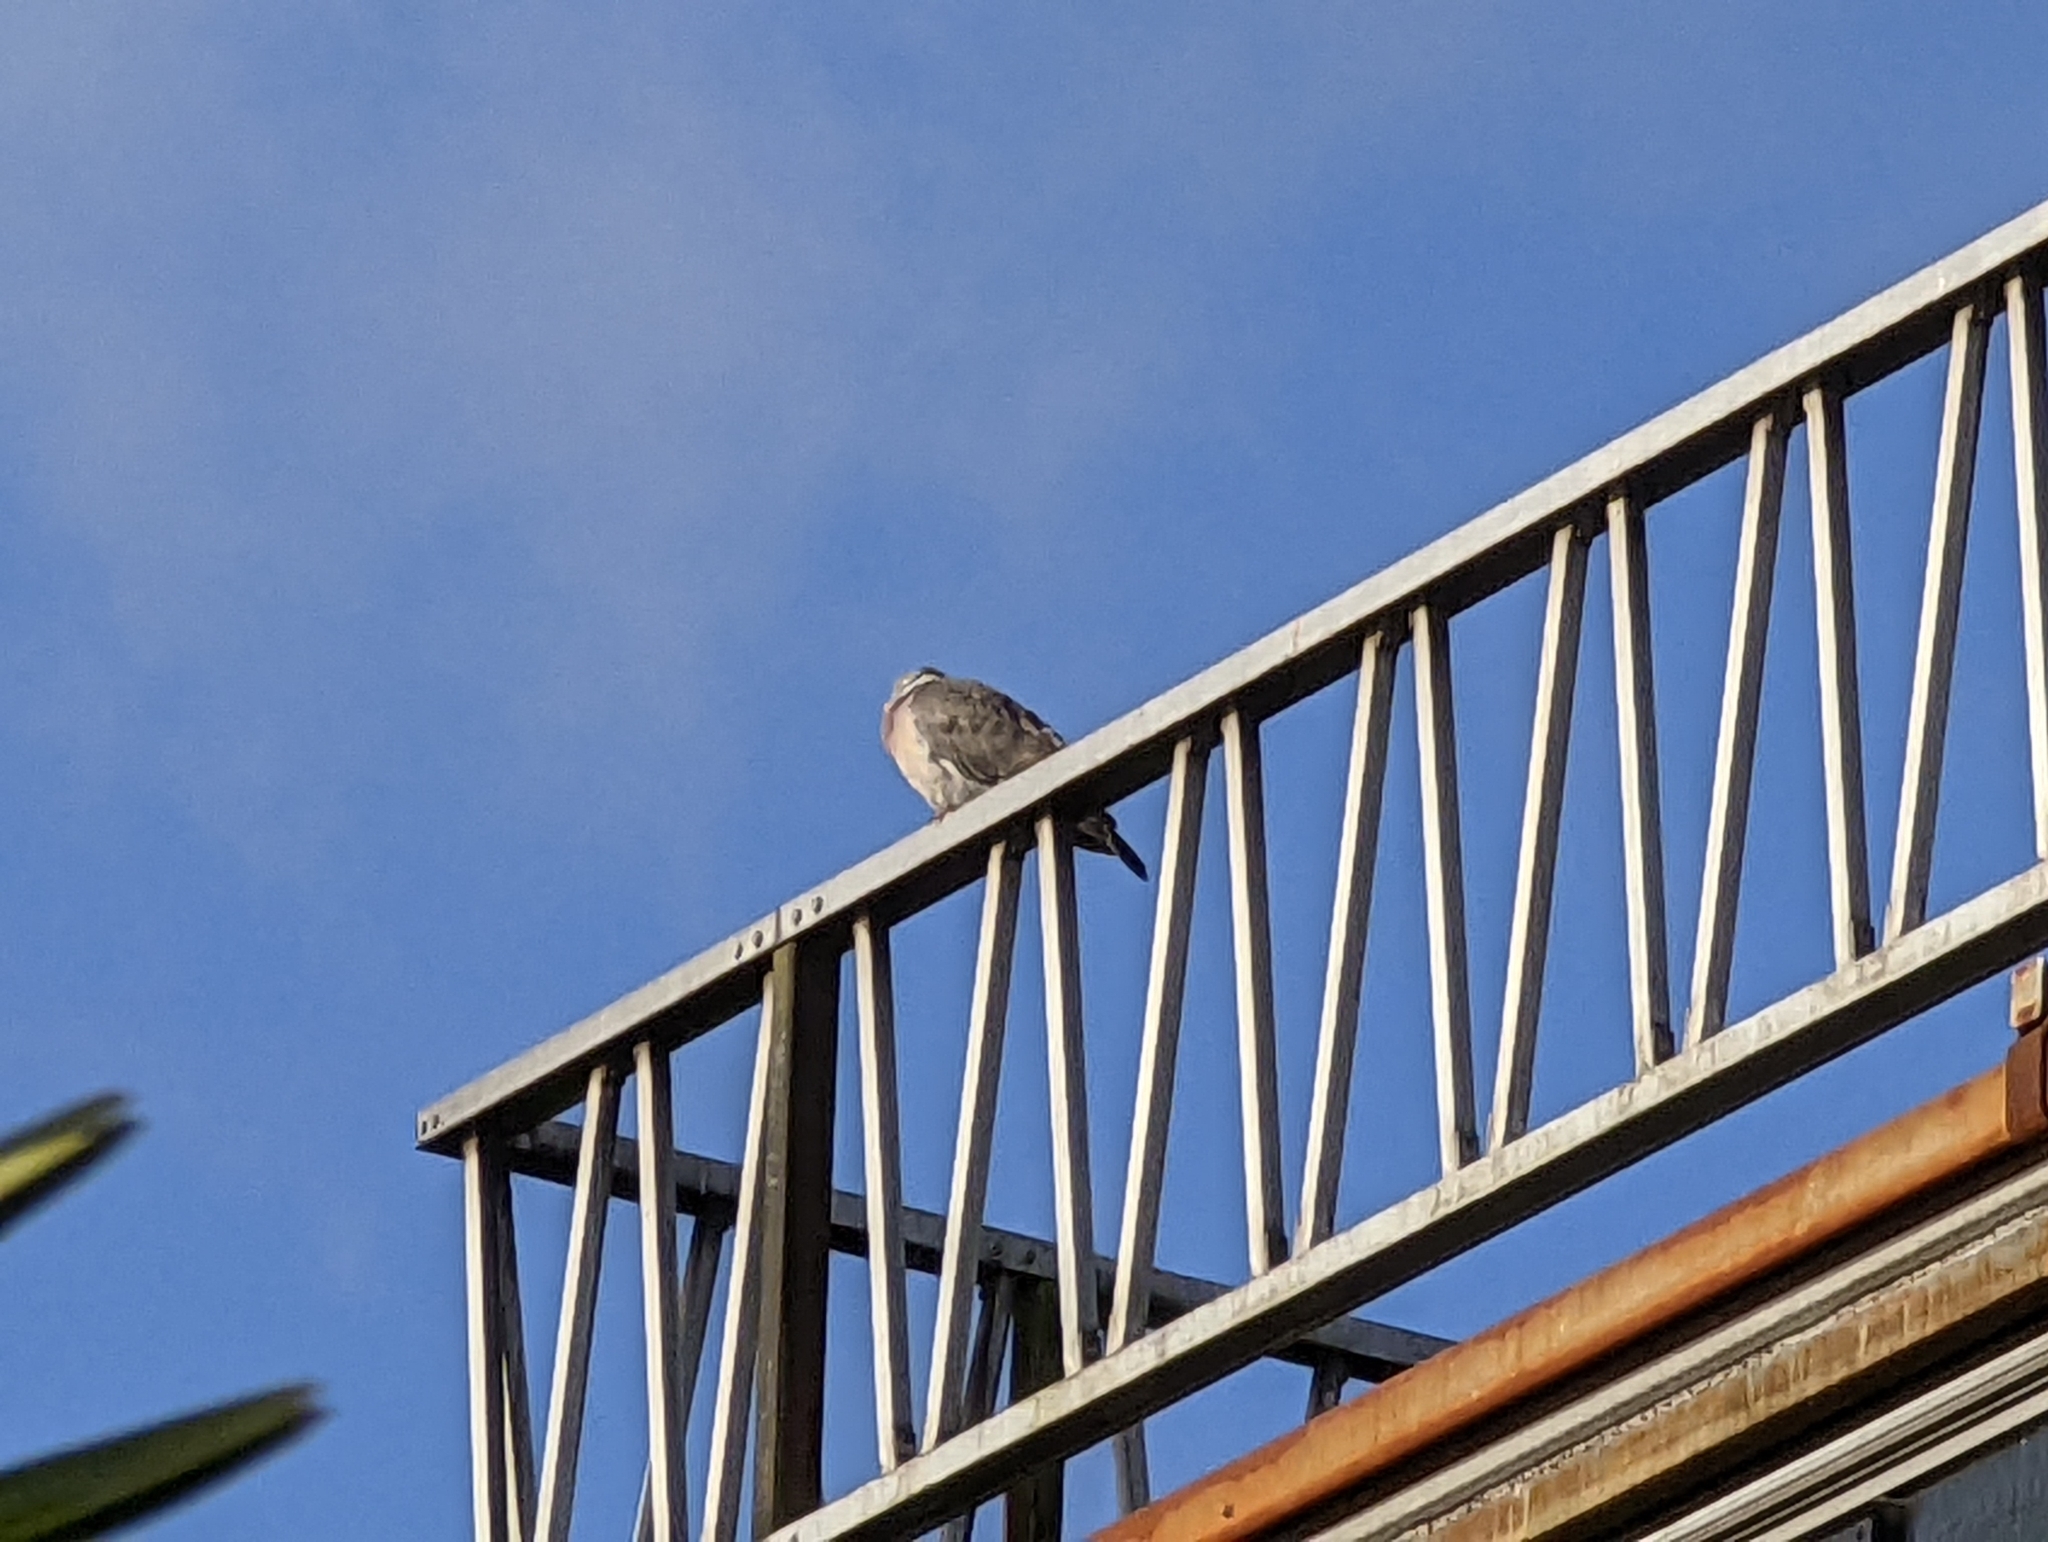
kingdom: Animalia
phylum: Chordata
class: Aves
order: Columbiformes
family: Columbidae
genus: Columba
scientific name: Columba palumbus
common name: Common wood pigeon
